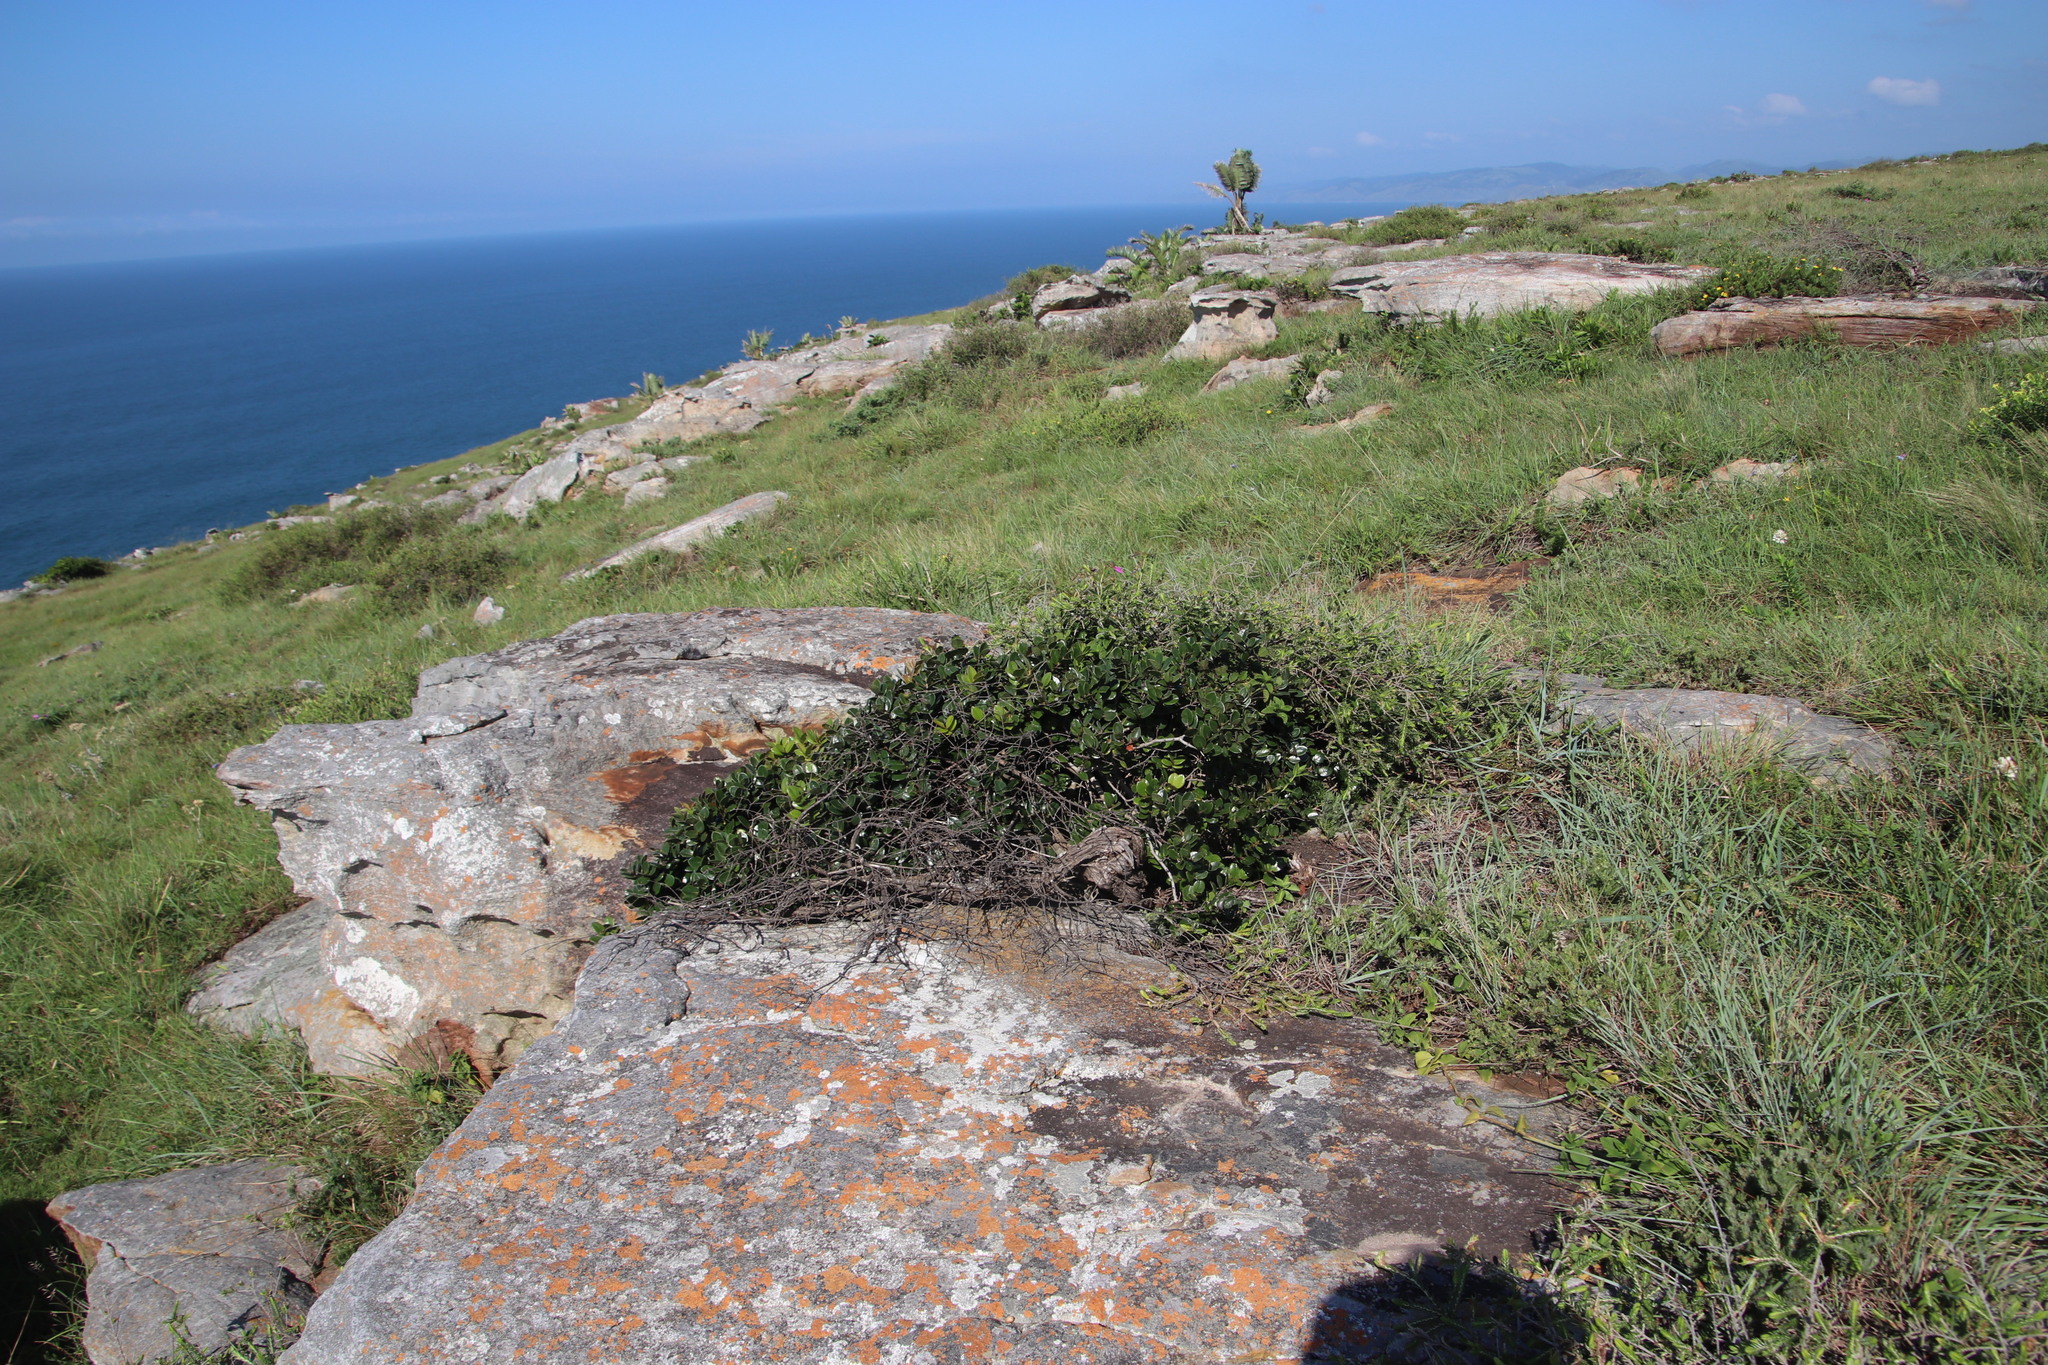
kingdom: Plantae
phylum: Tracheophyta
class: Magnoliopsida
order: Ericales
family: Ebenaceae
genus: Diospyros
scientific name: Diospyros scabrida
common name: Coastal bladder-nut
